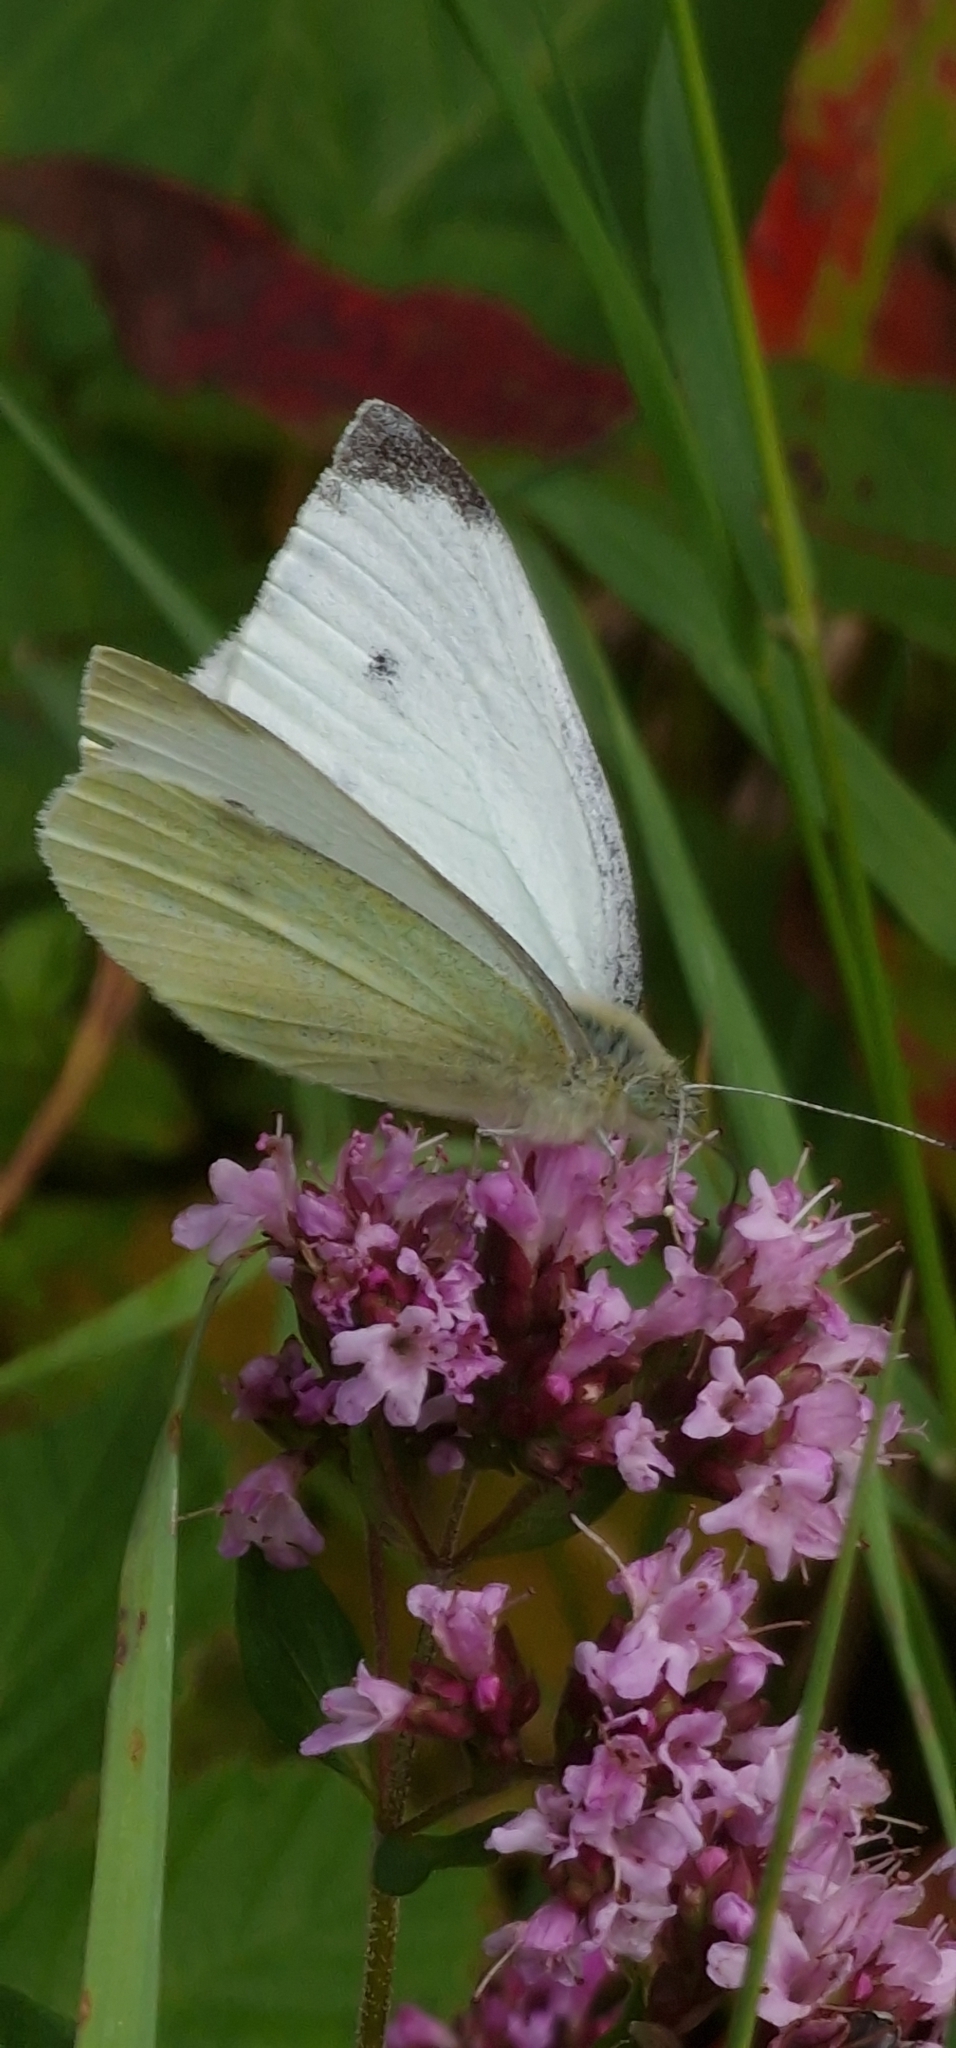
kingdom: Animalia
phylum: Arthropoda
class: Insecta
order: Lepidoptera
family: Pieridae
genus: Pieris
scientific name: Pieris rapae
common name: Small white
